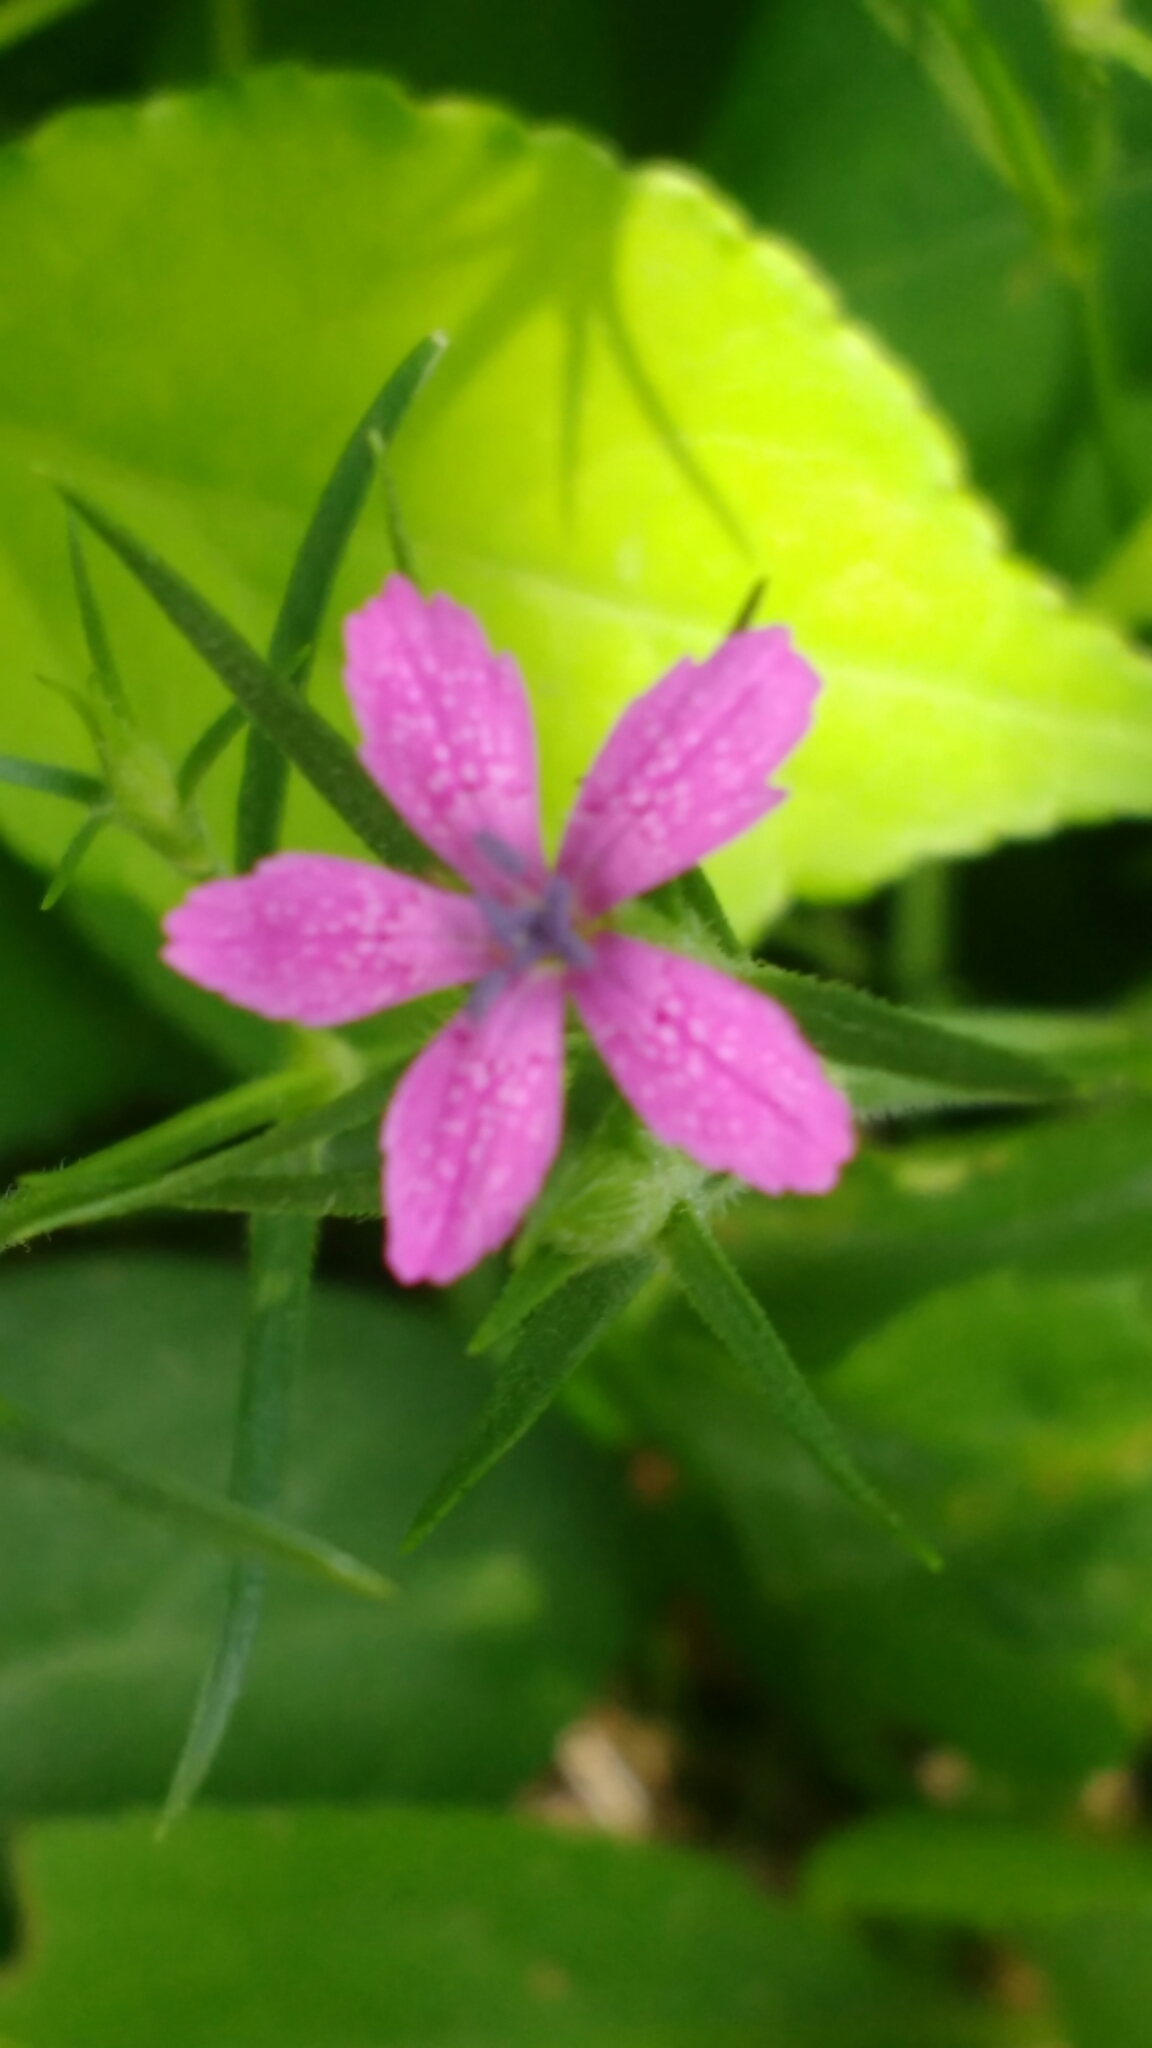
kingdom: Plantae
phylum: Tracheophyta
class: Magnoliopsida
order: Caryophyllales
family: Caryophyllaceae
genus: Dianthus
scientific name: Dianthus armeria
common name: Deptford pink
